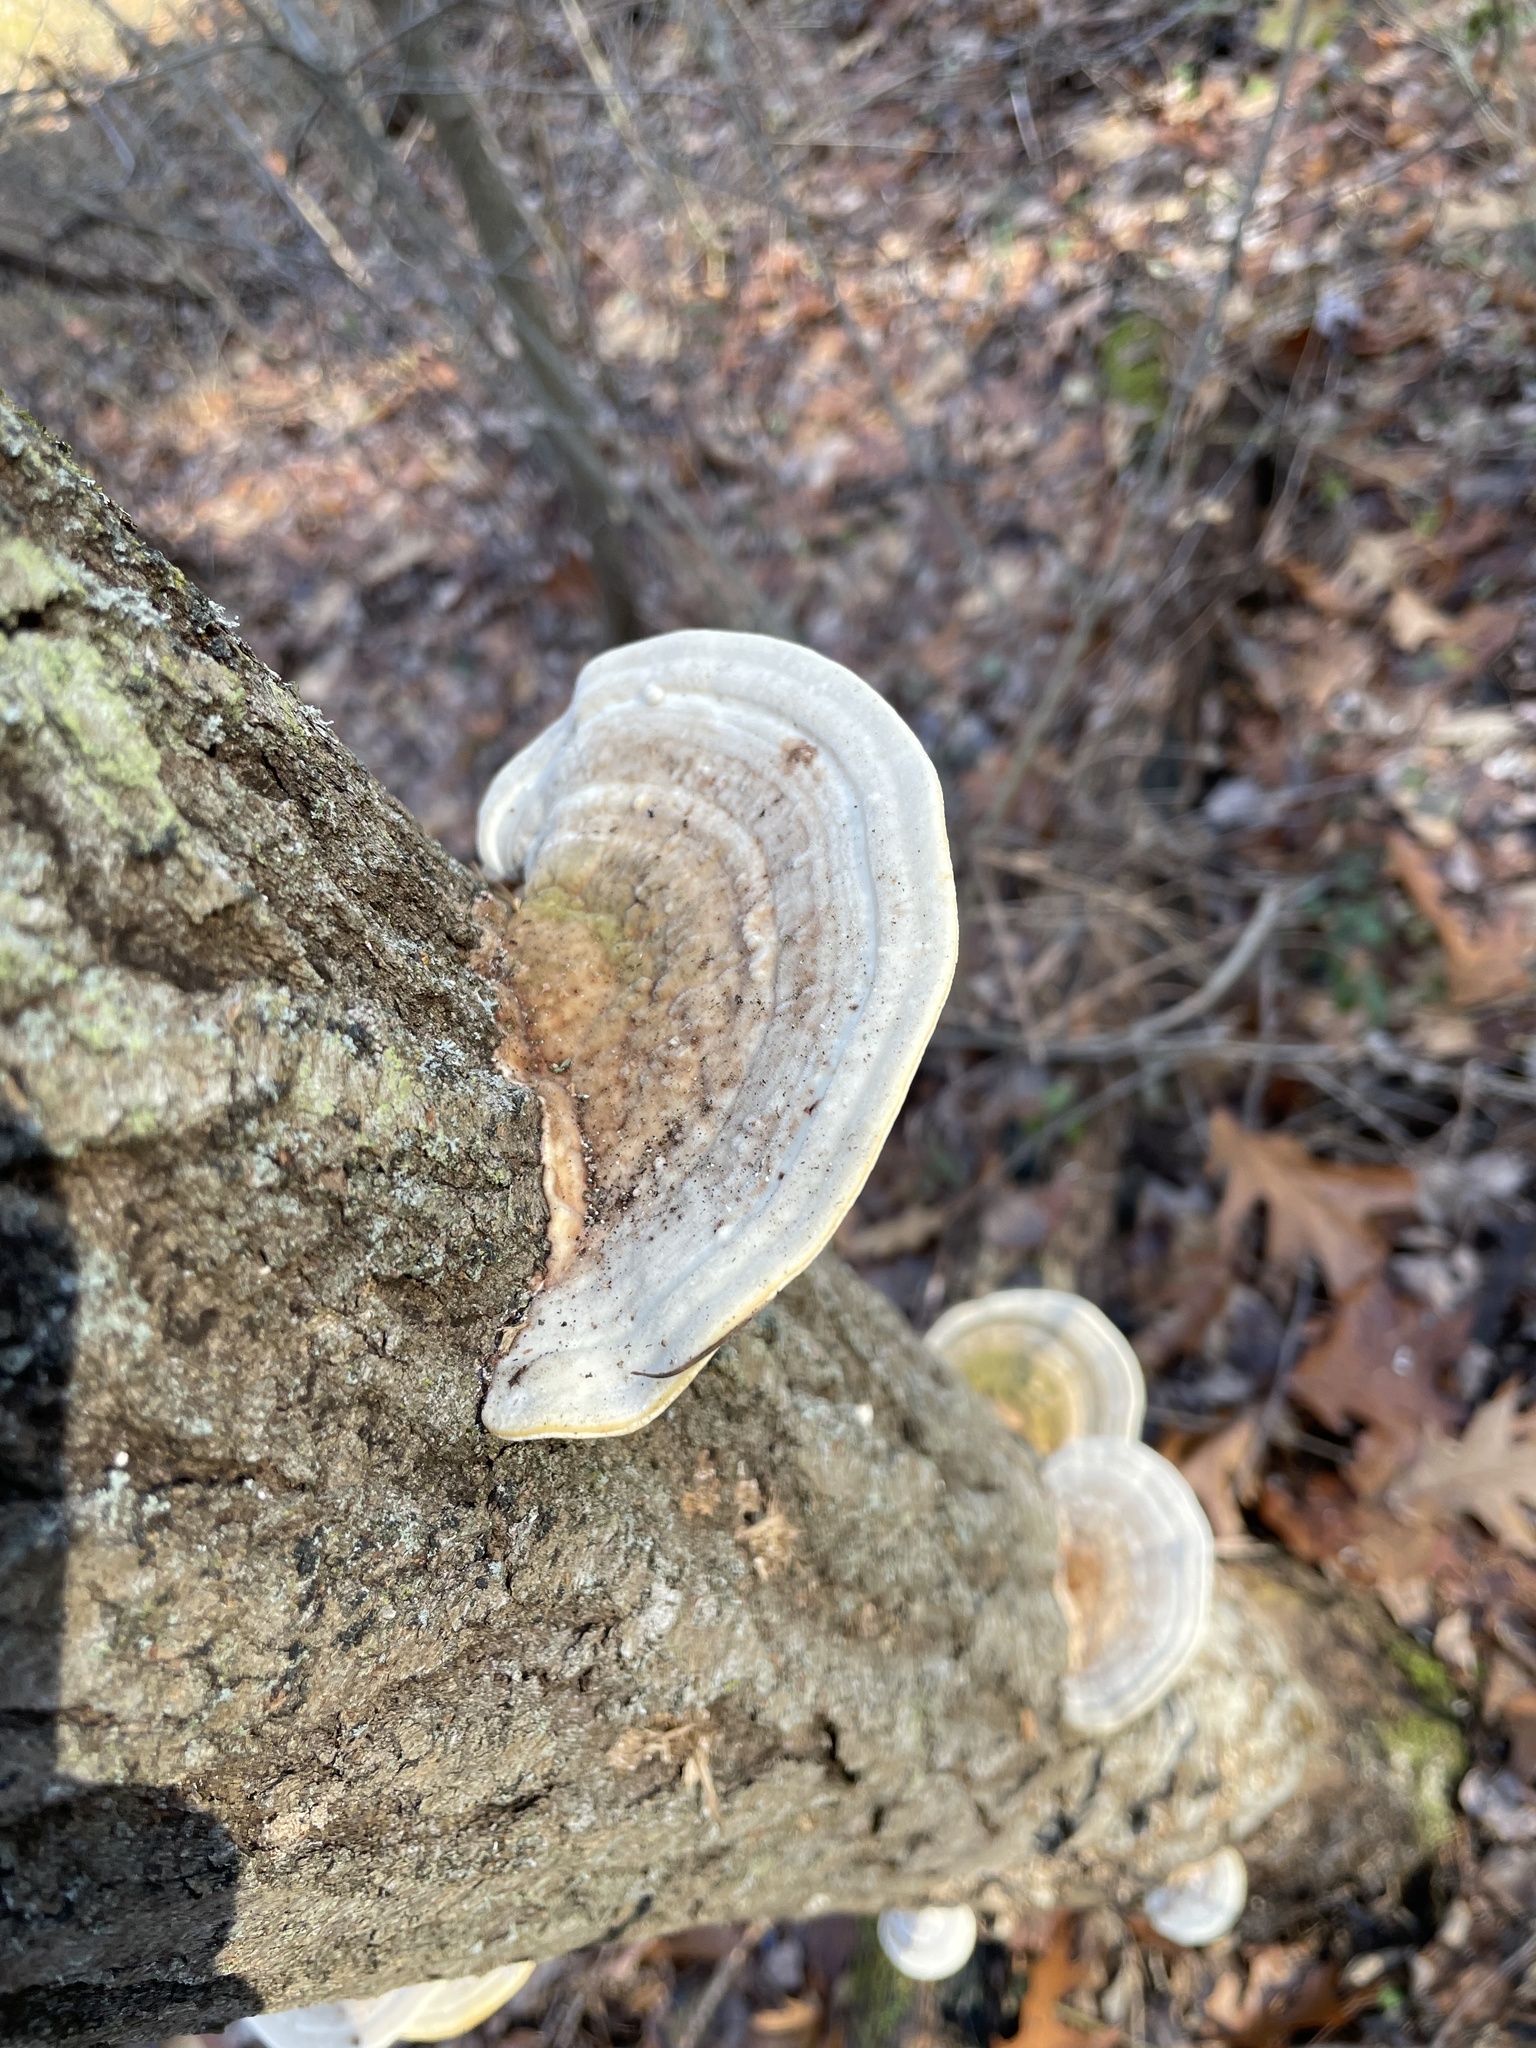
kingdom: Fungi
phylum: Basidiomycota
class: Agaricomycetes
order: Polyporales
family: Polyporaceae
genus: Trametes
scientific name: Trametes gibbosa
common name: Lumpy bracket
